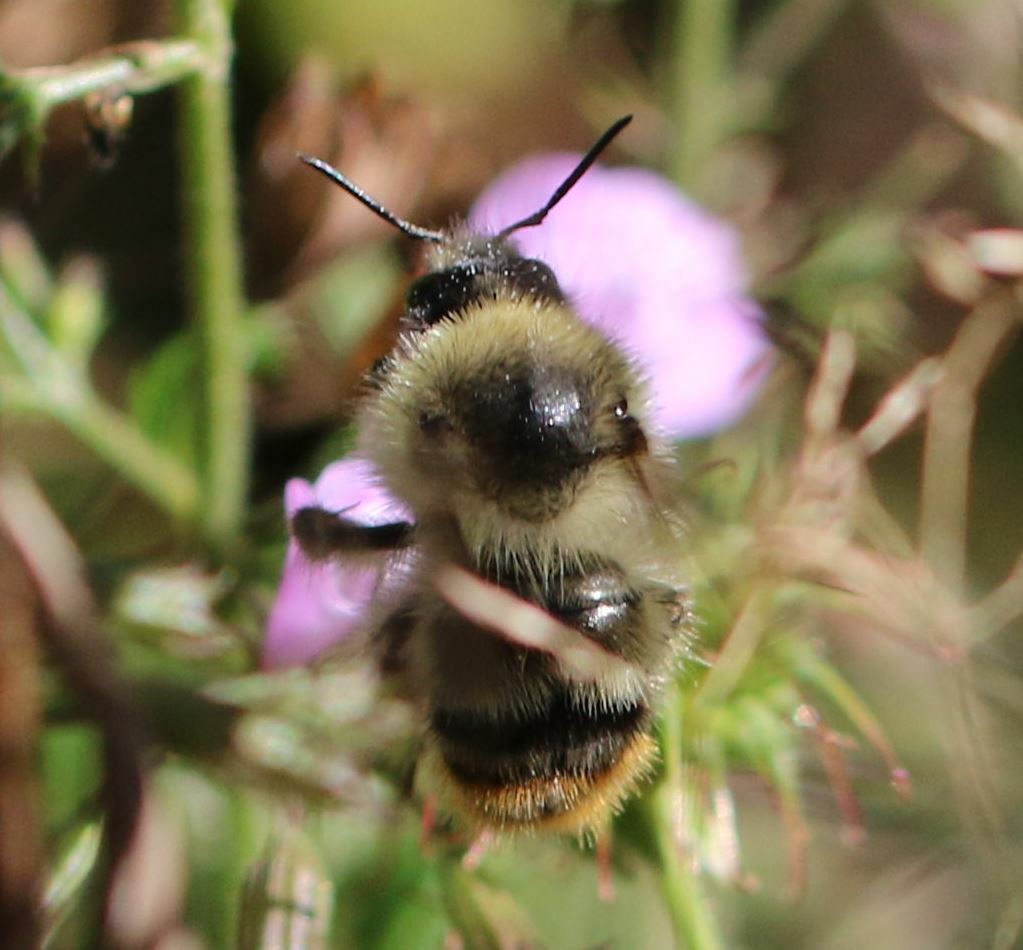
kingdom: Animalia
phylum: Arthropoda
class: Insecta
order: Hymenoptera
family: Apidae
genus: Bombus
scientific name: Bombus sylvarum
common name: Shrill carder bee
